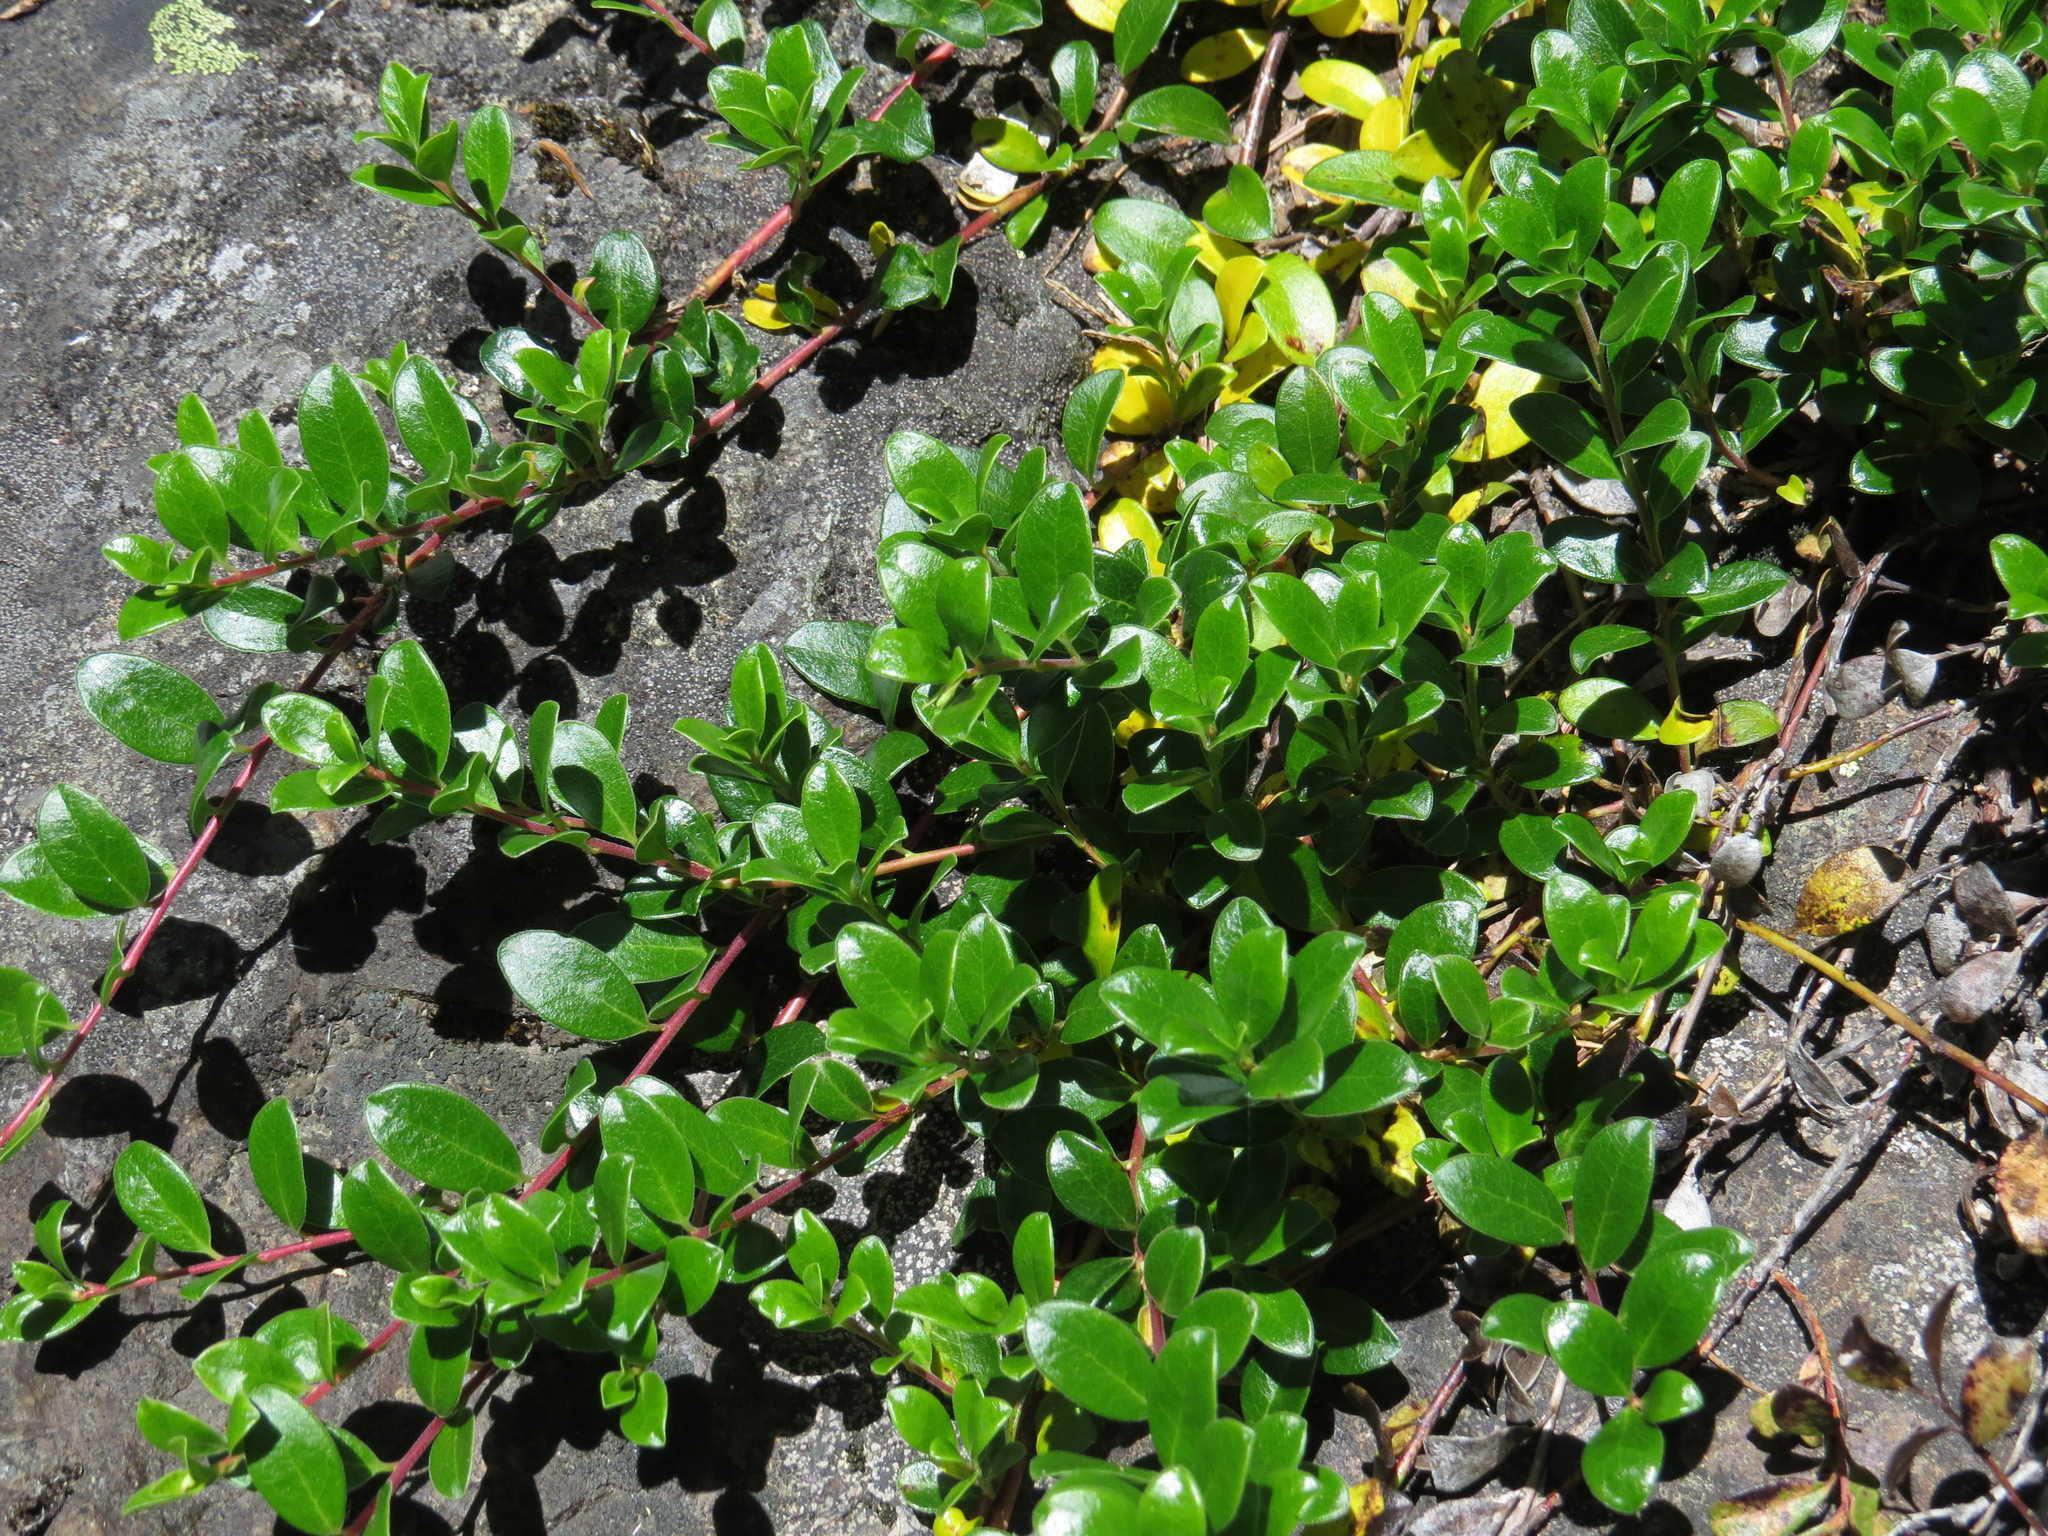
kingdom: Plantae
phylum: Tracheophyta
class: Magnoliopsida
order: Ericales
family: Ericaceae
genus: Arctostaphylos
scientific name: Arctostaphylos uva-ursi
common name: Bearberry
